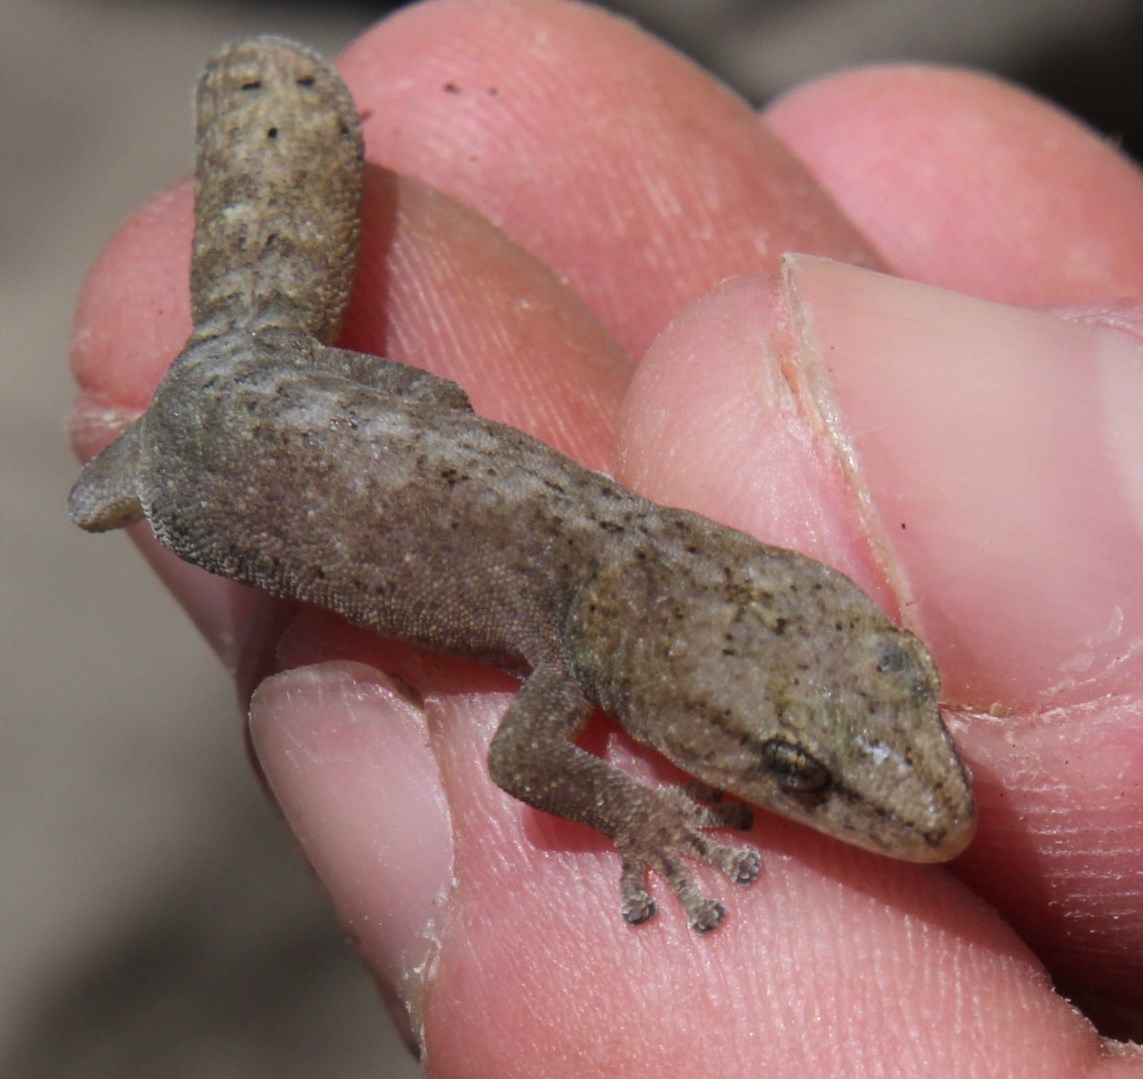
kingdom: Animalia
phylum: Chordata
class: Squamata
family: Gekkonidae
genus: Afrogecko
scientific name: Afrogecko porphyreus
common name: Marbled leaf-toed gecko
